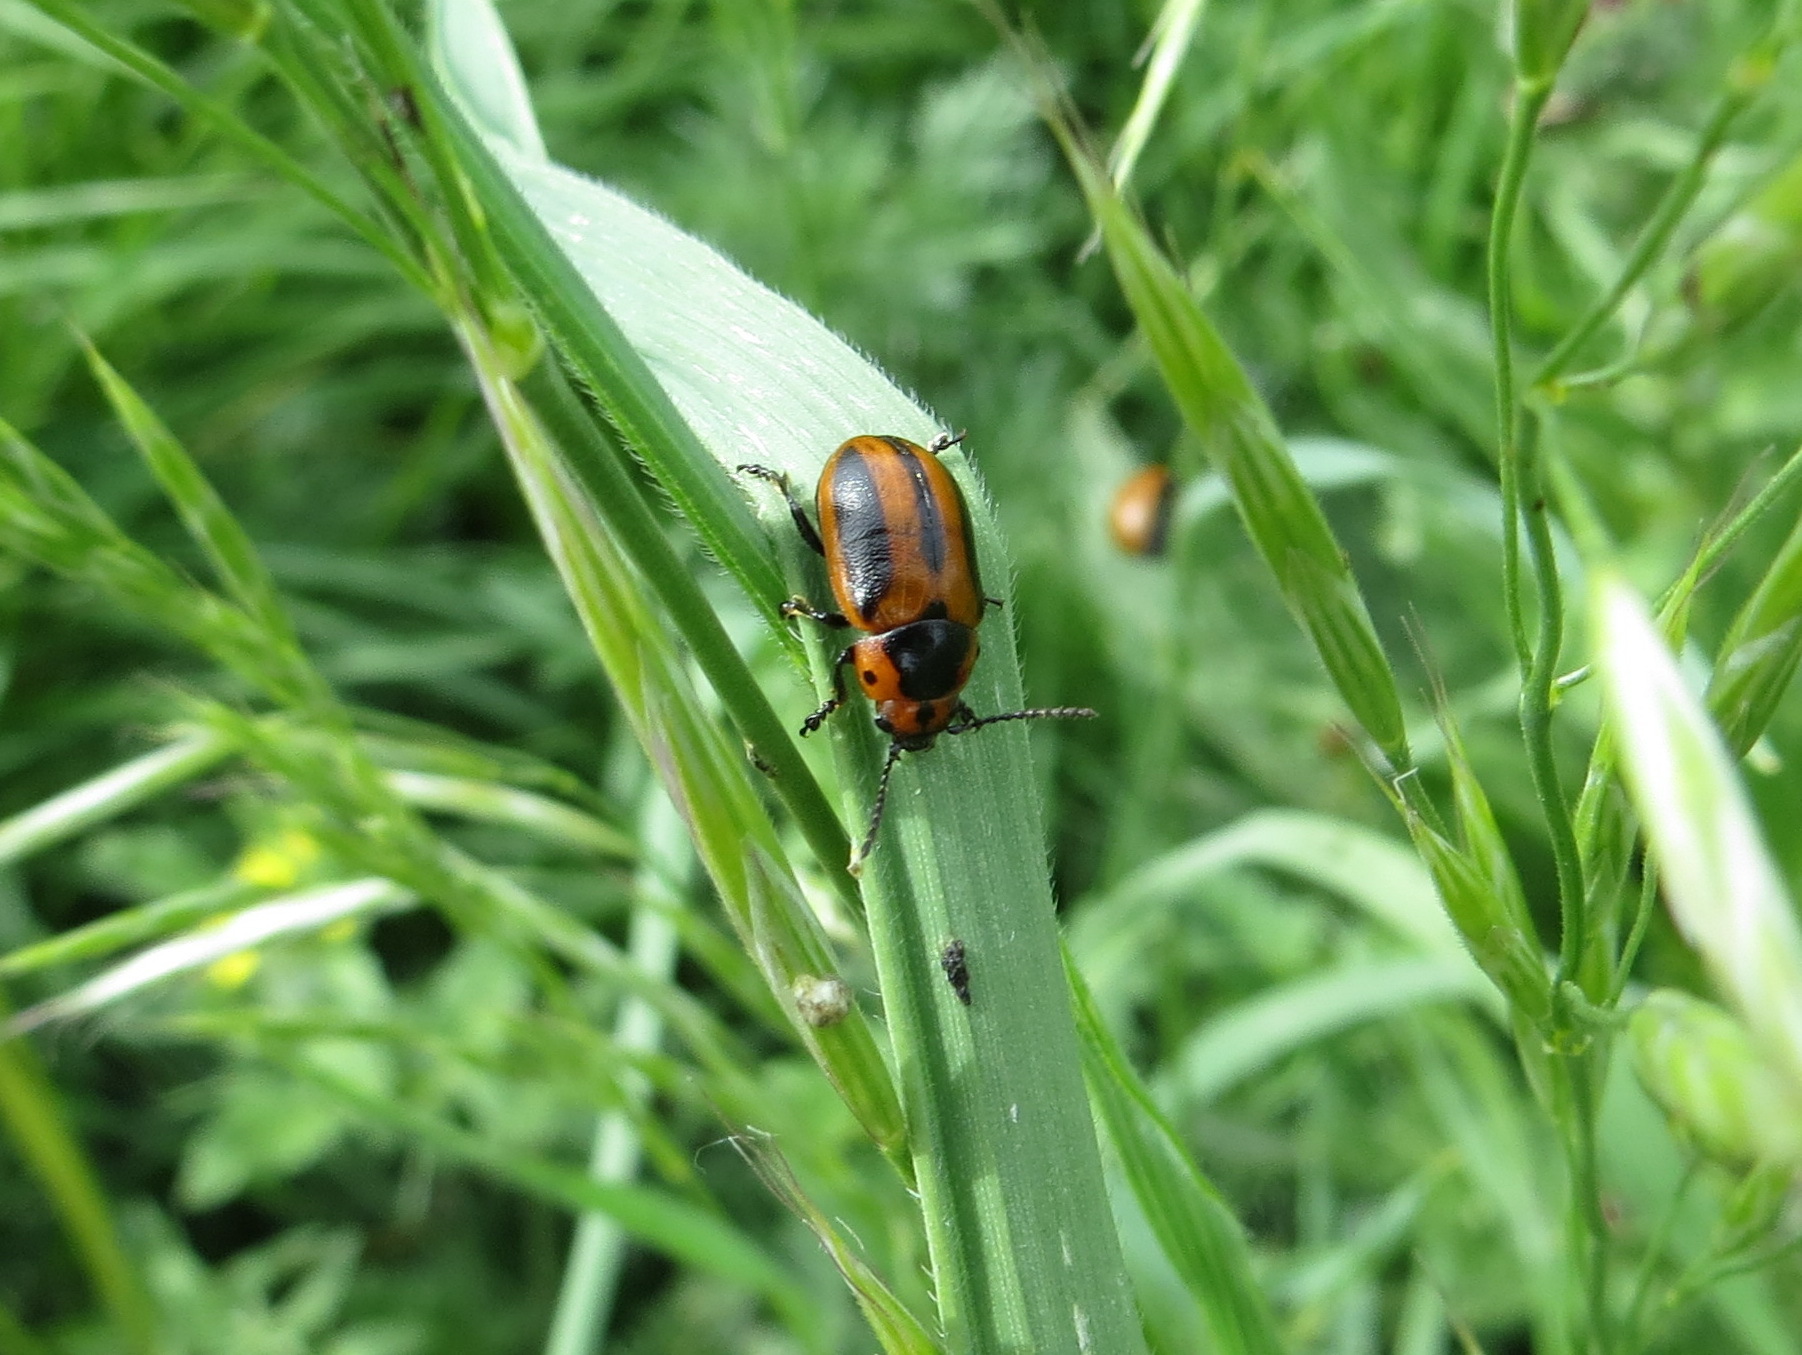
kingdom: Animalia
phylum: Arthropoda
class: Insecta
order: Coleoptera
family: Chrysomelidae
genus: Entomoscelis
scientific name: Entomoscelis adonidis
